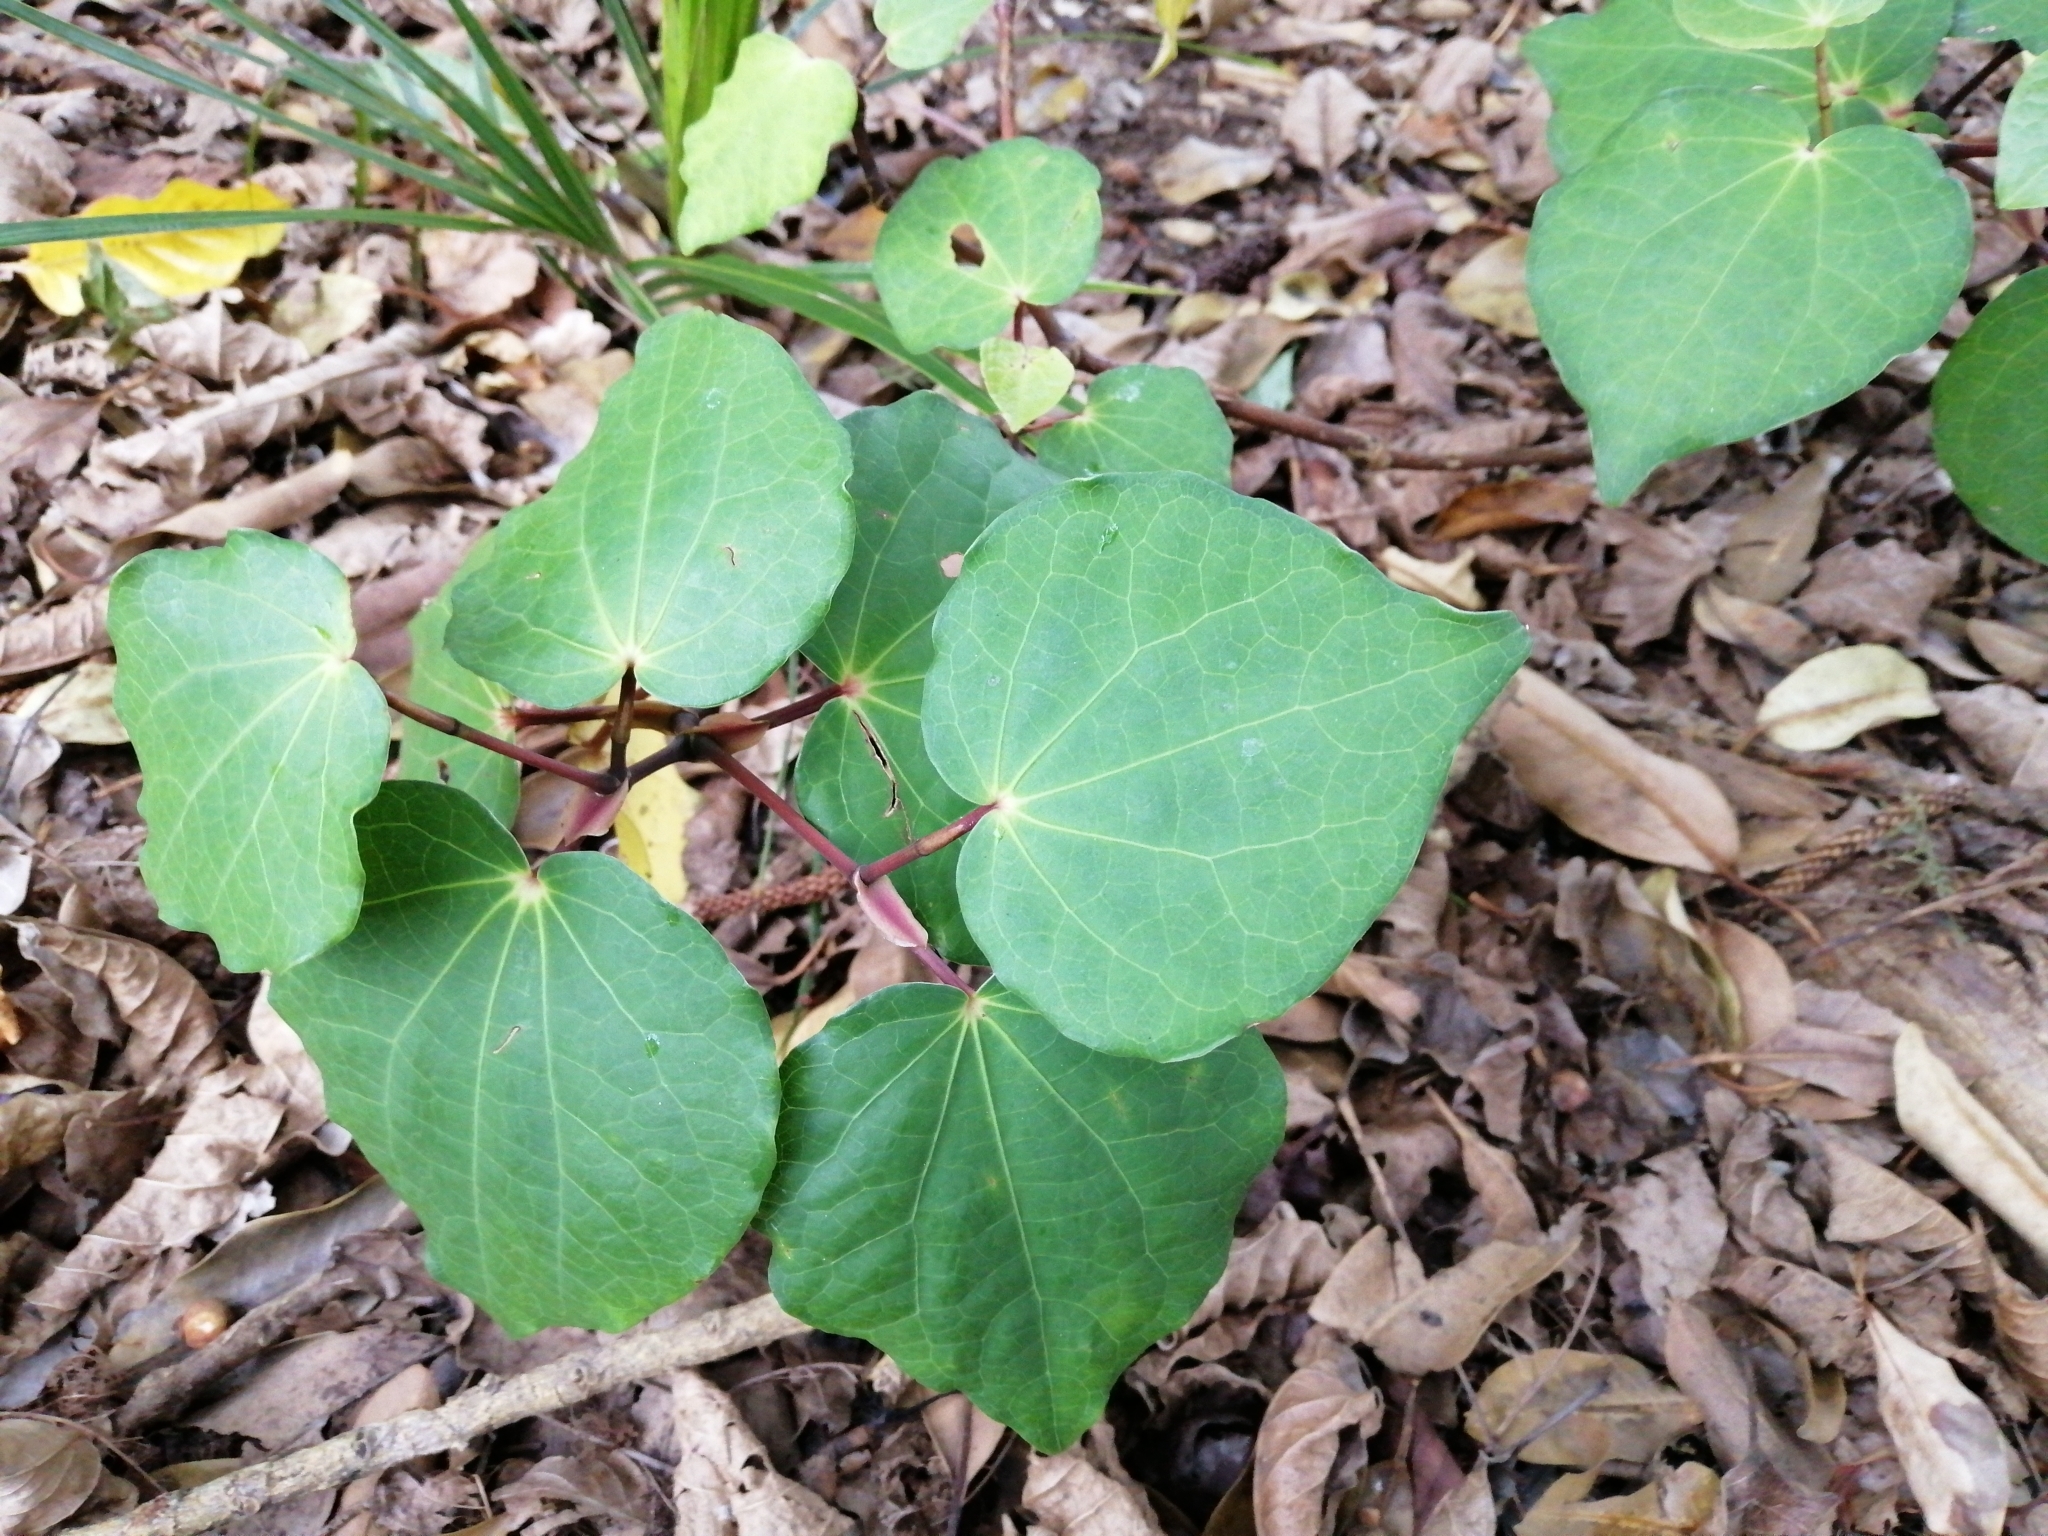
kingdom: Plantae
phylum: Tracheophyta
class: Magnoliopsida
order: Piperales
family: Piperaceae
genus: Macropiper
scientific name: Macropiper excelsum
